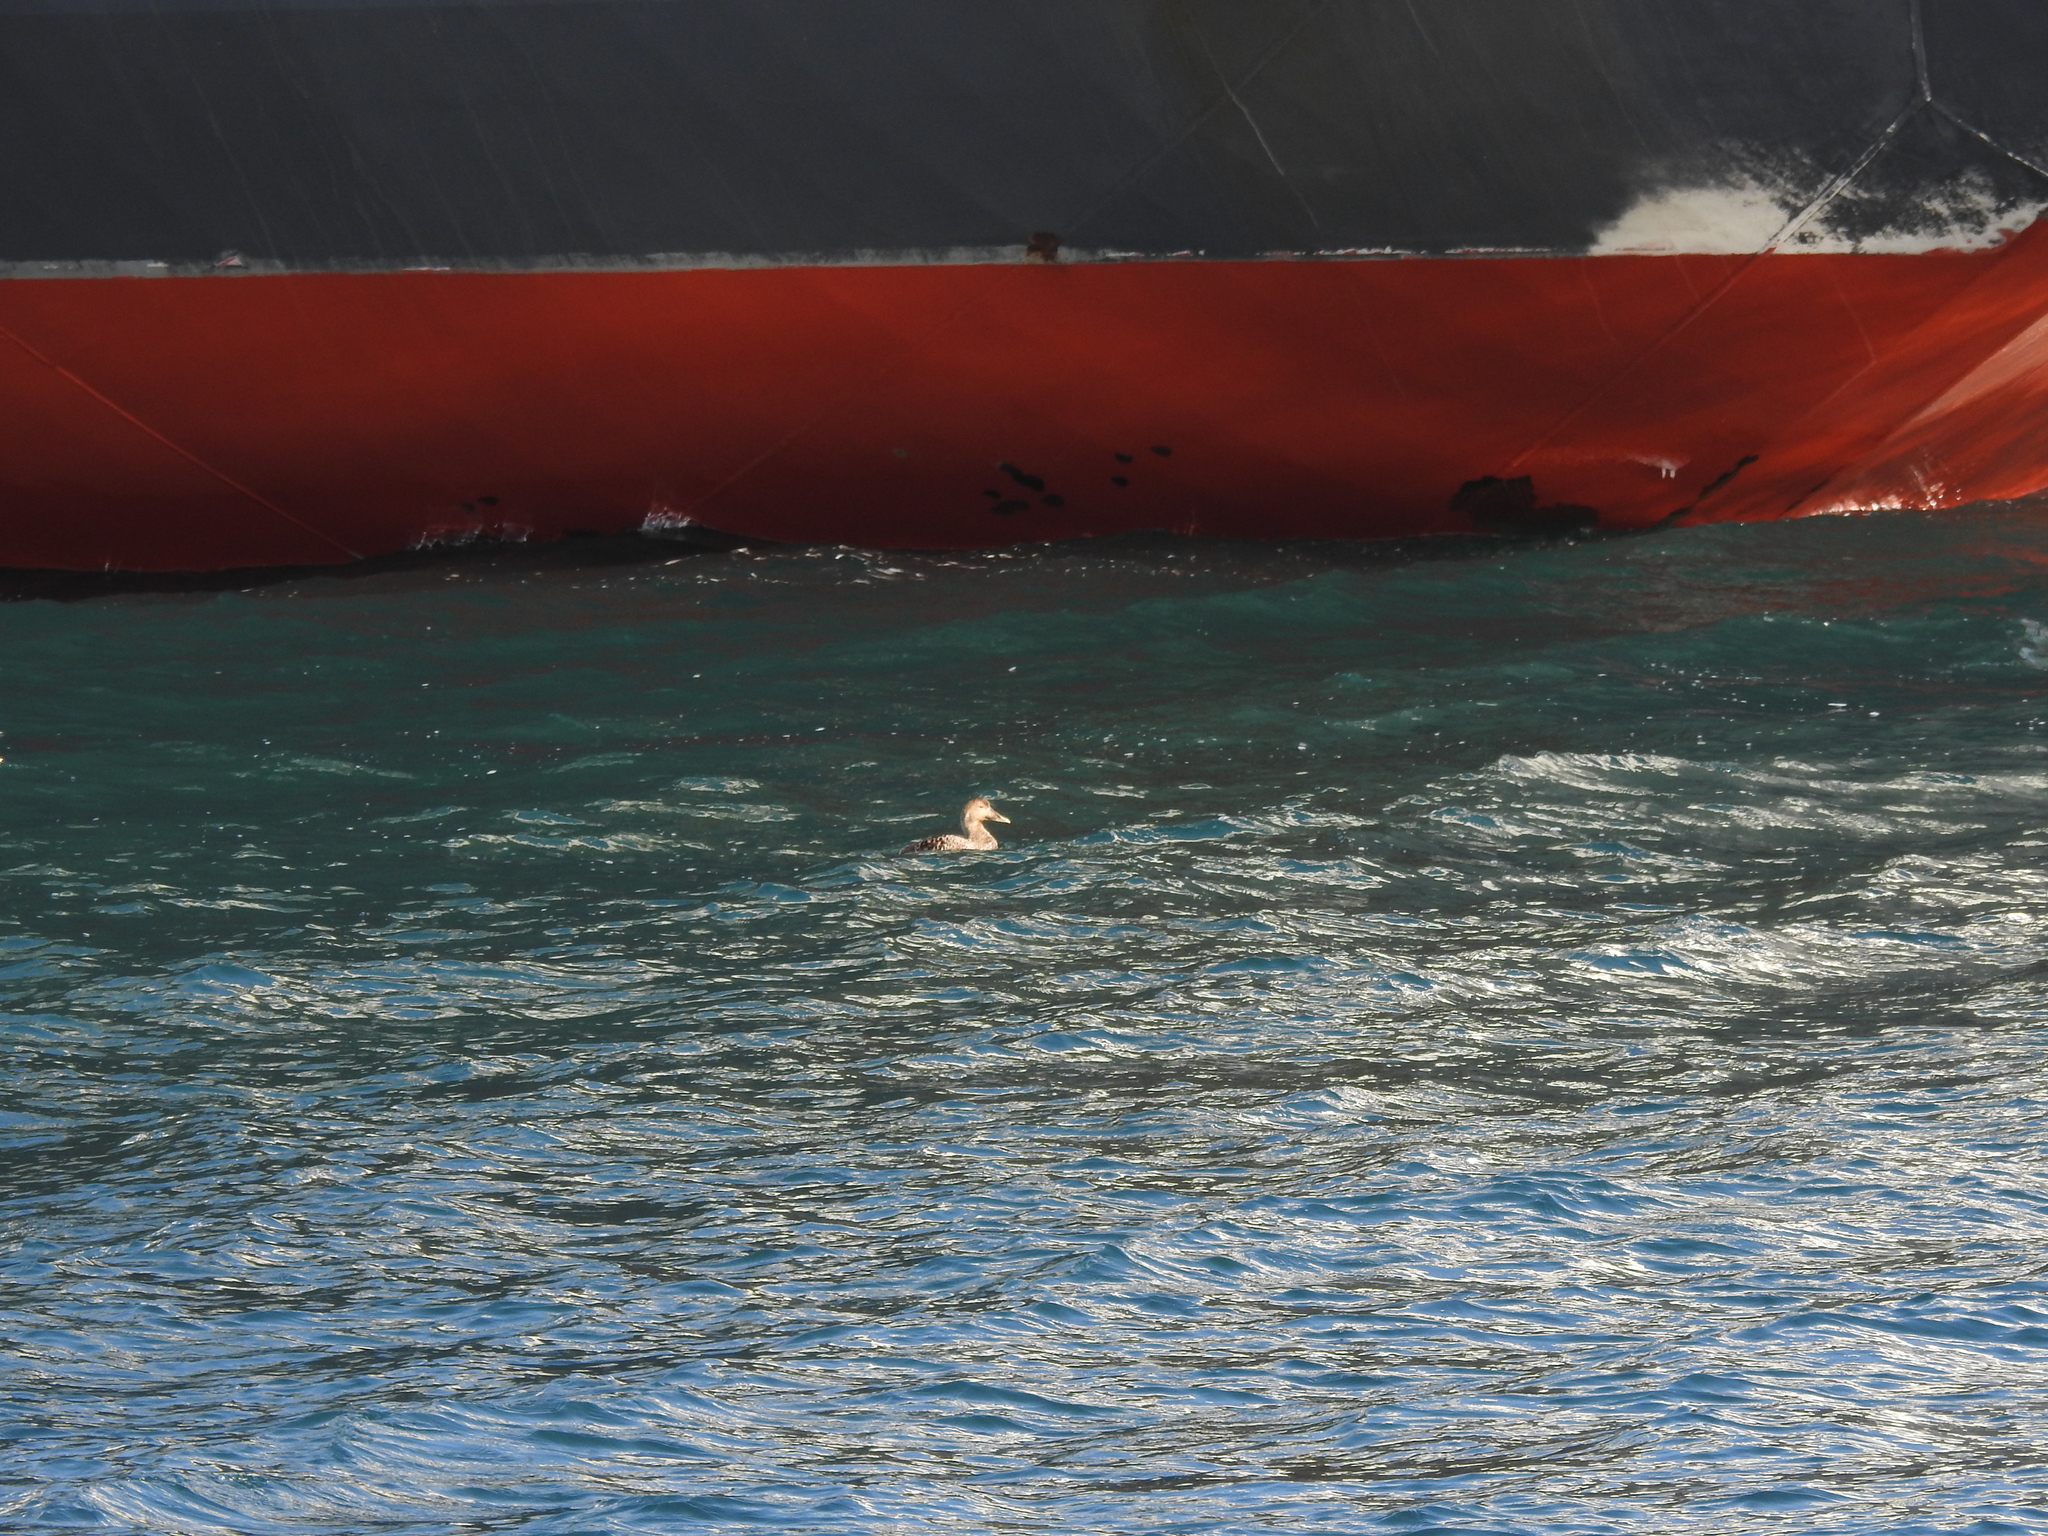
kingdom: Animalia
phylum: Chordata
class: Aves
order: Anseriformes
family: Anatidae
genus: Somateria
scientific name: Somateria mollissima
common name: Common eider
